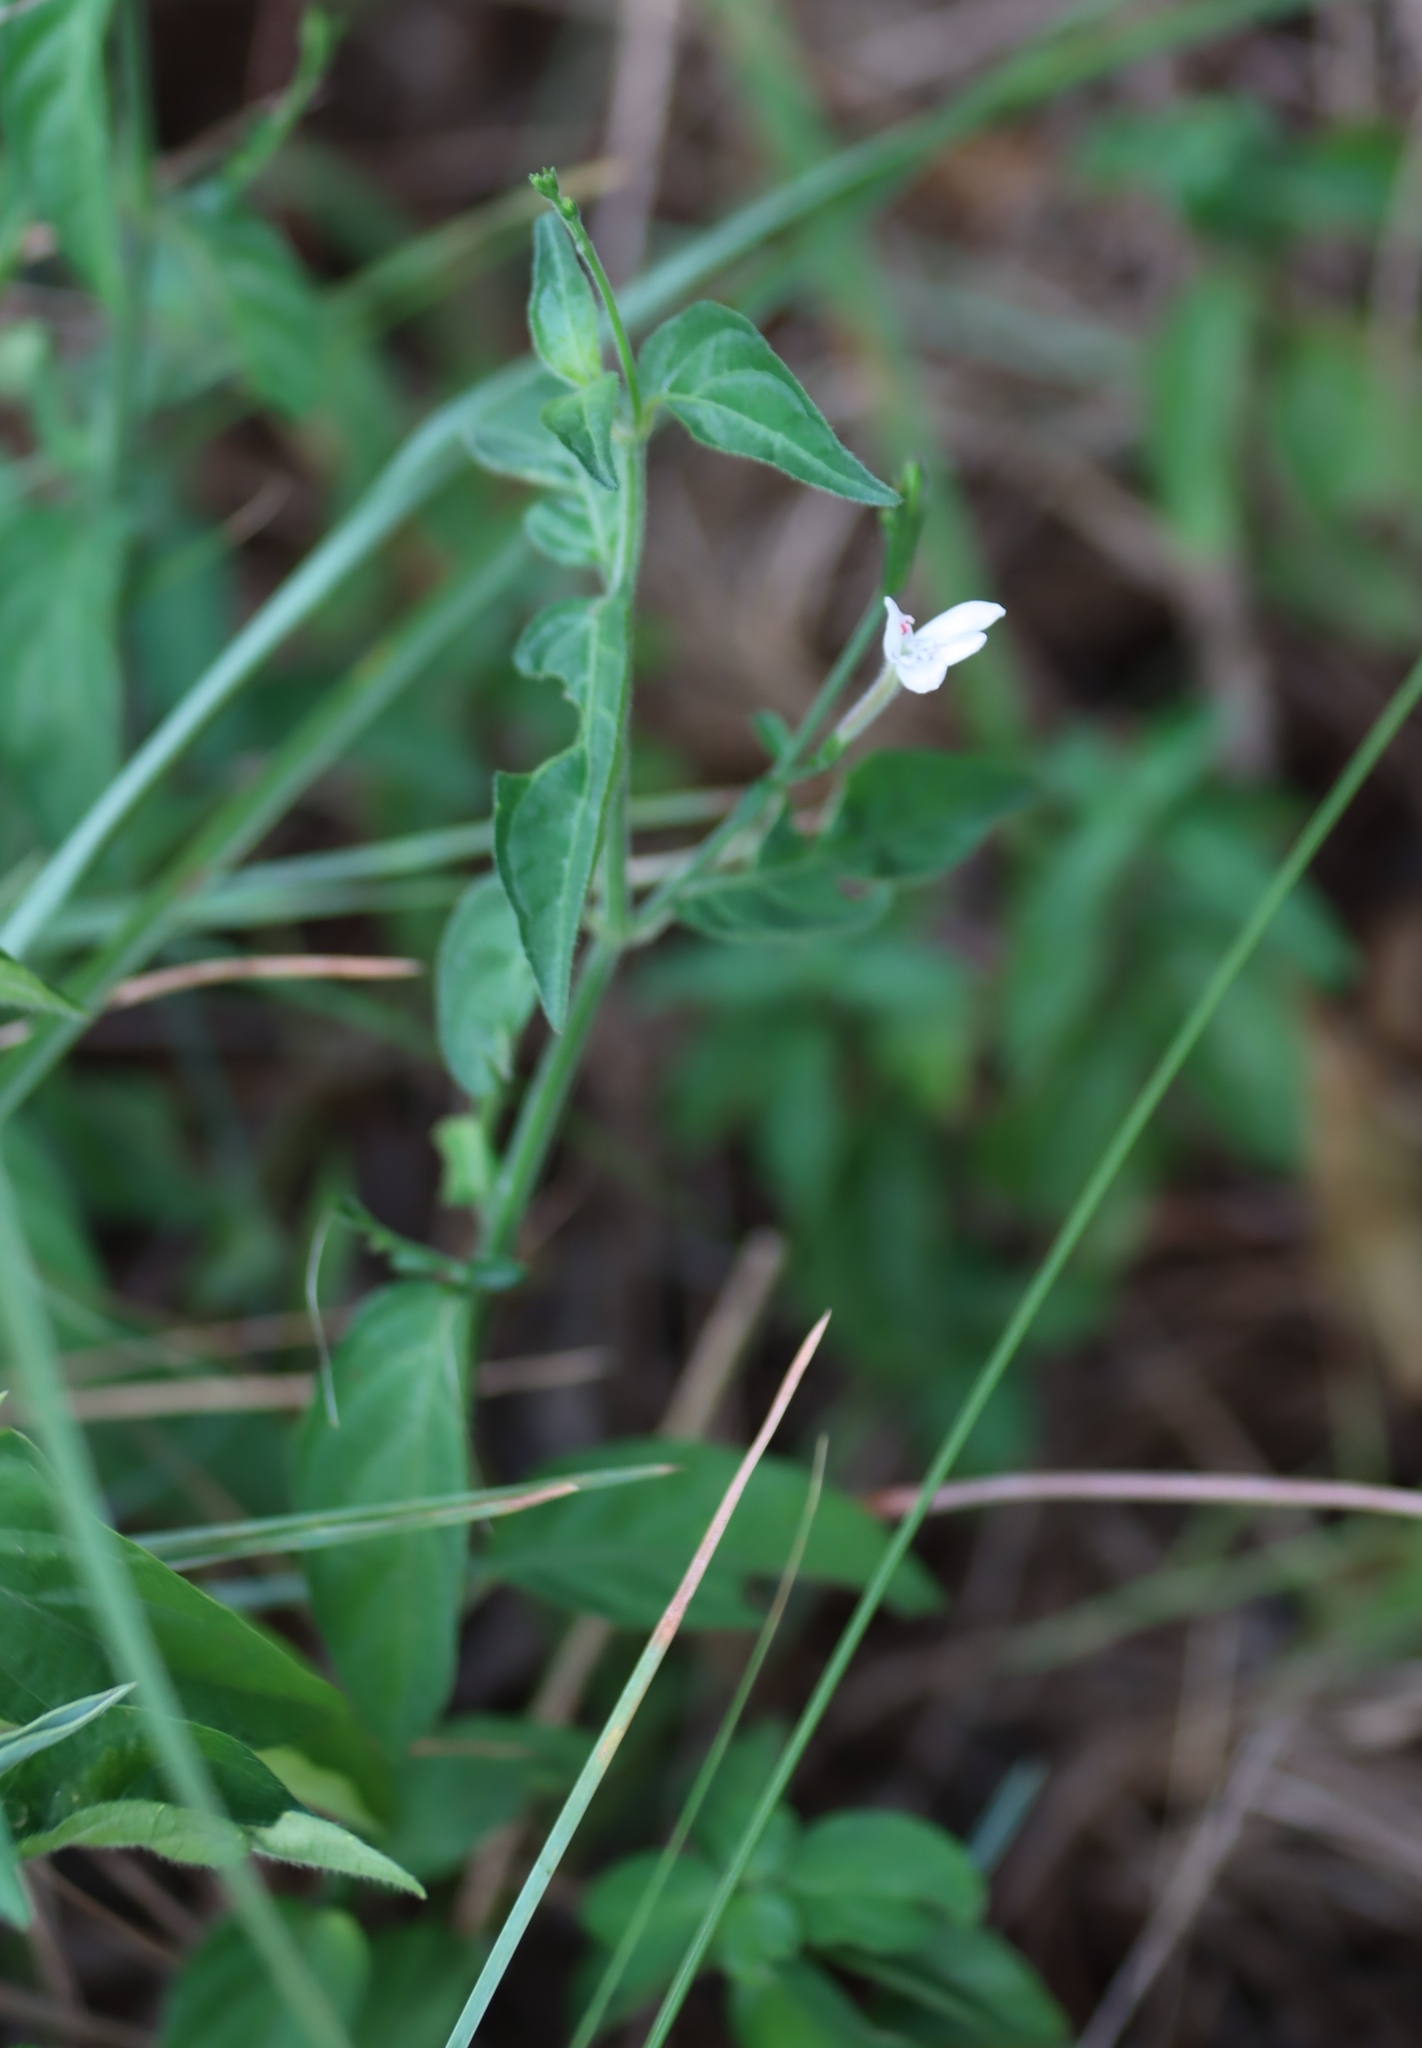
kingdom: Plantae
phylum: Tracheophyta
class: Magnoliopsida
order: Lamiales
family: Acanthaceae
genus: Rhinacanthus
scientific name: Rhinacanthus gracilis
